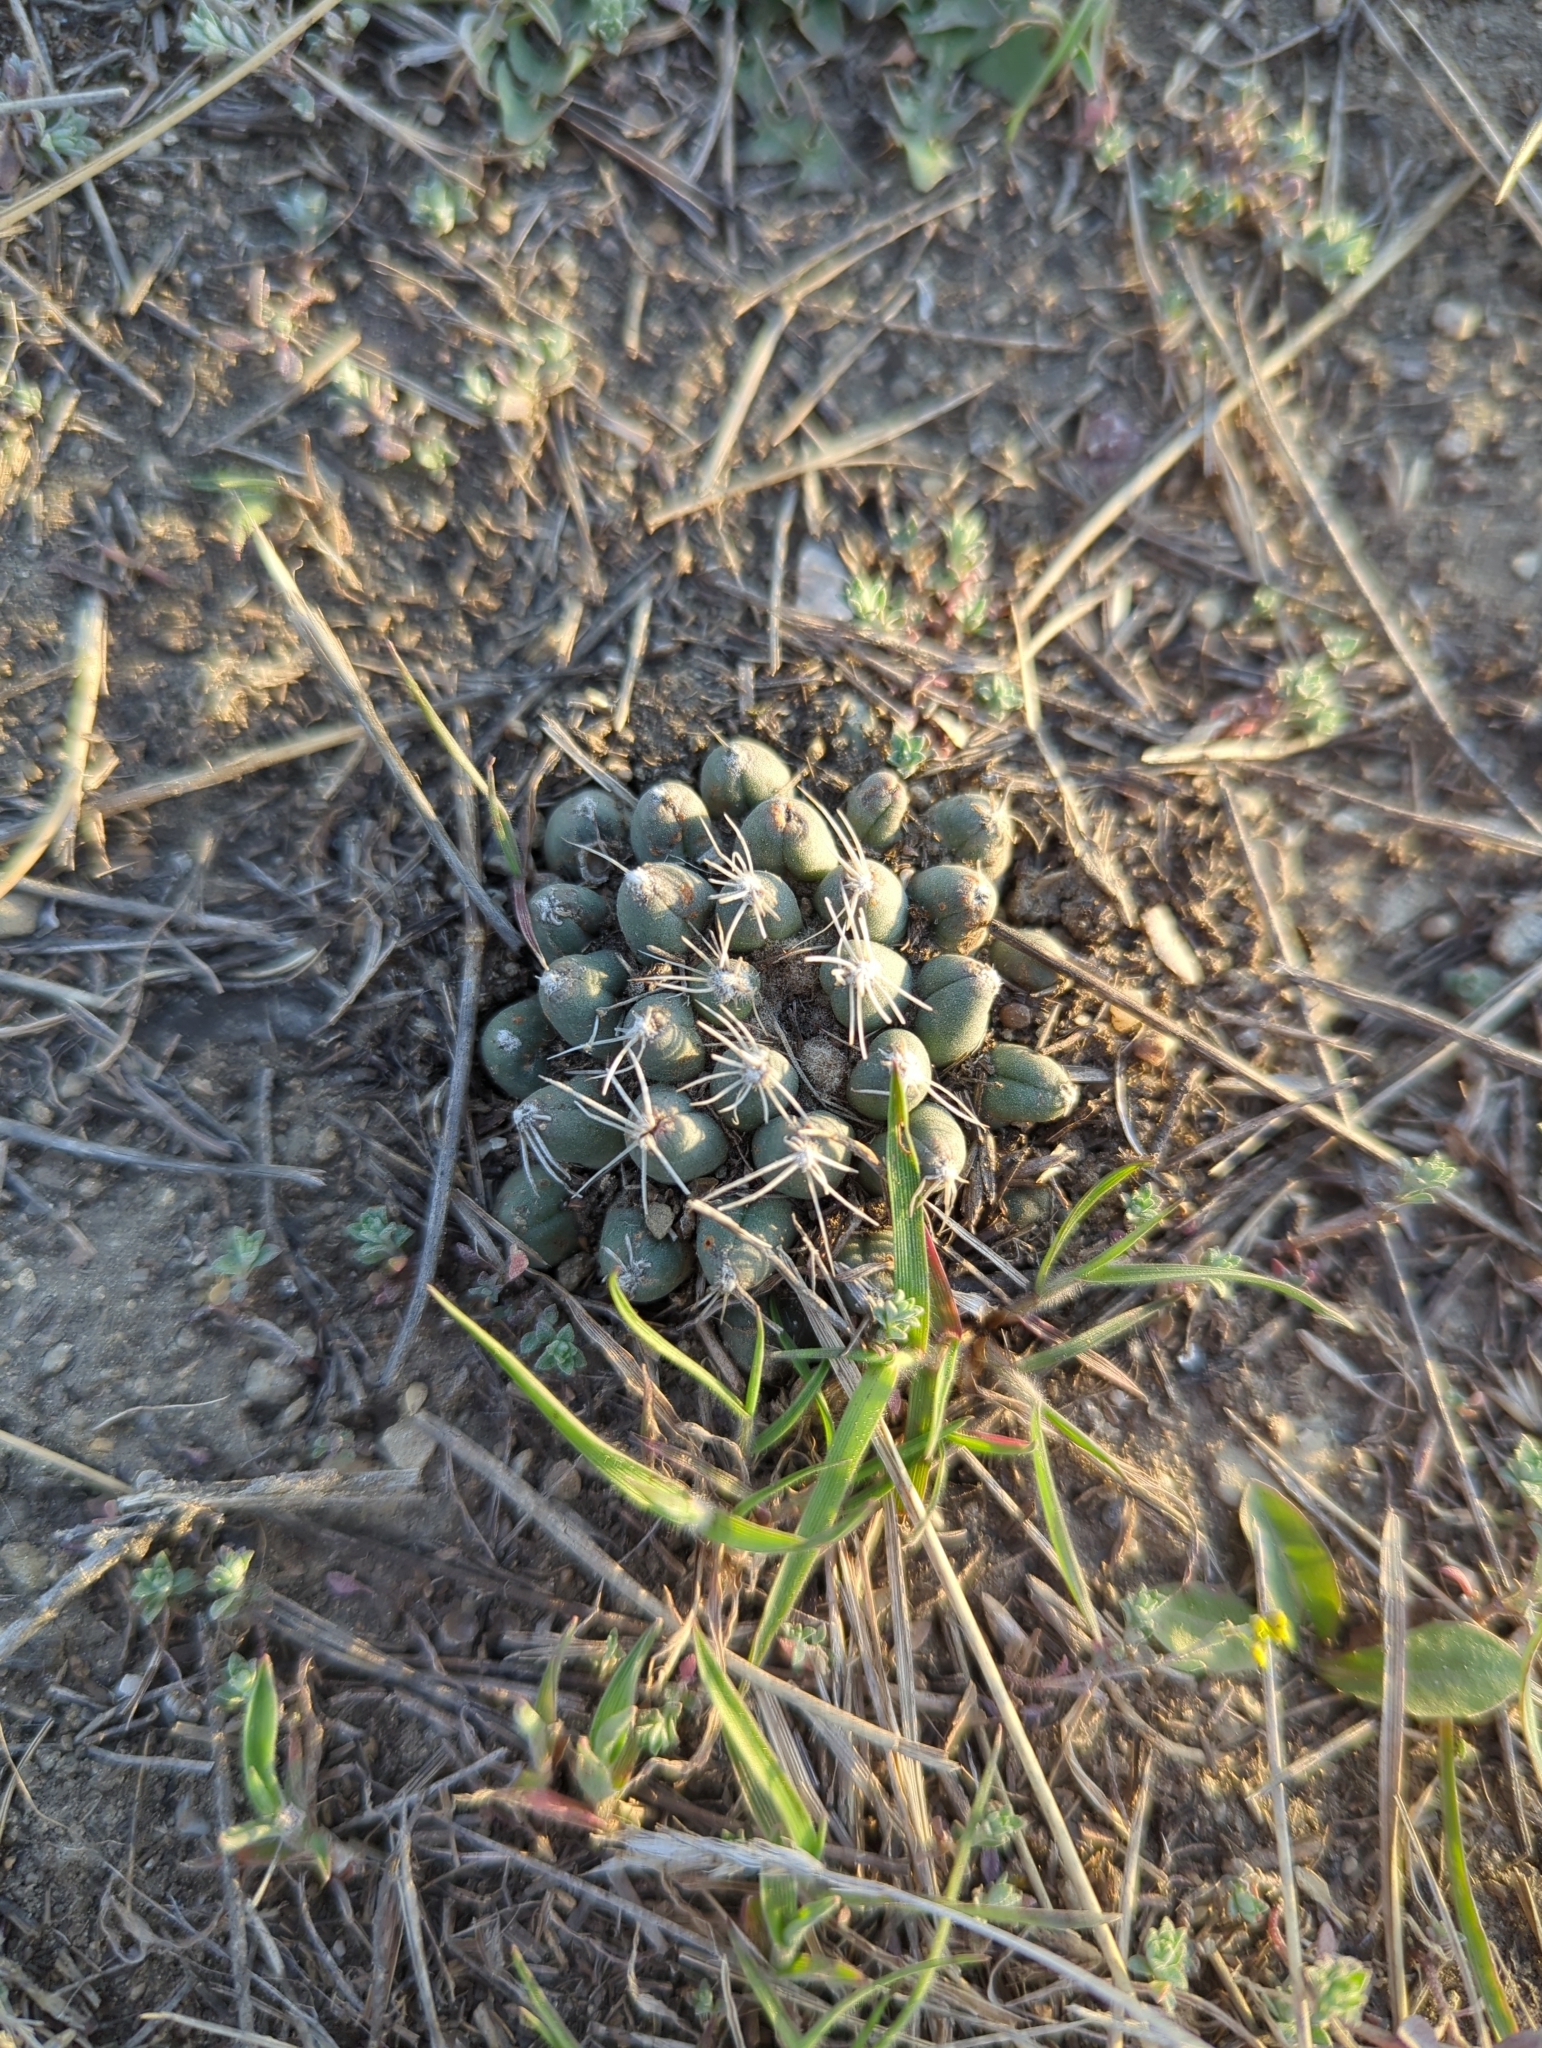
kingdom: Plantae
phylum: Tracheophyta
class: Magnoliopsida
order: Caryophyllales
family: Cactaceae
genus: Pelecyphora
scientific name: Pelecyphora missouriensis
